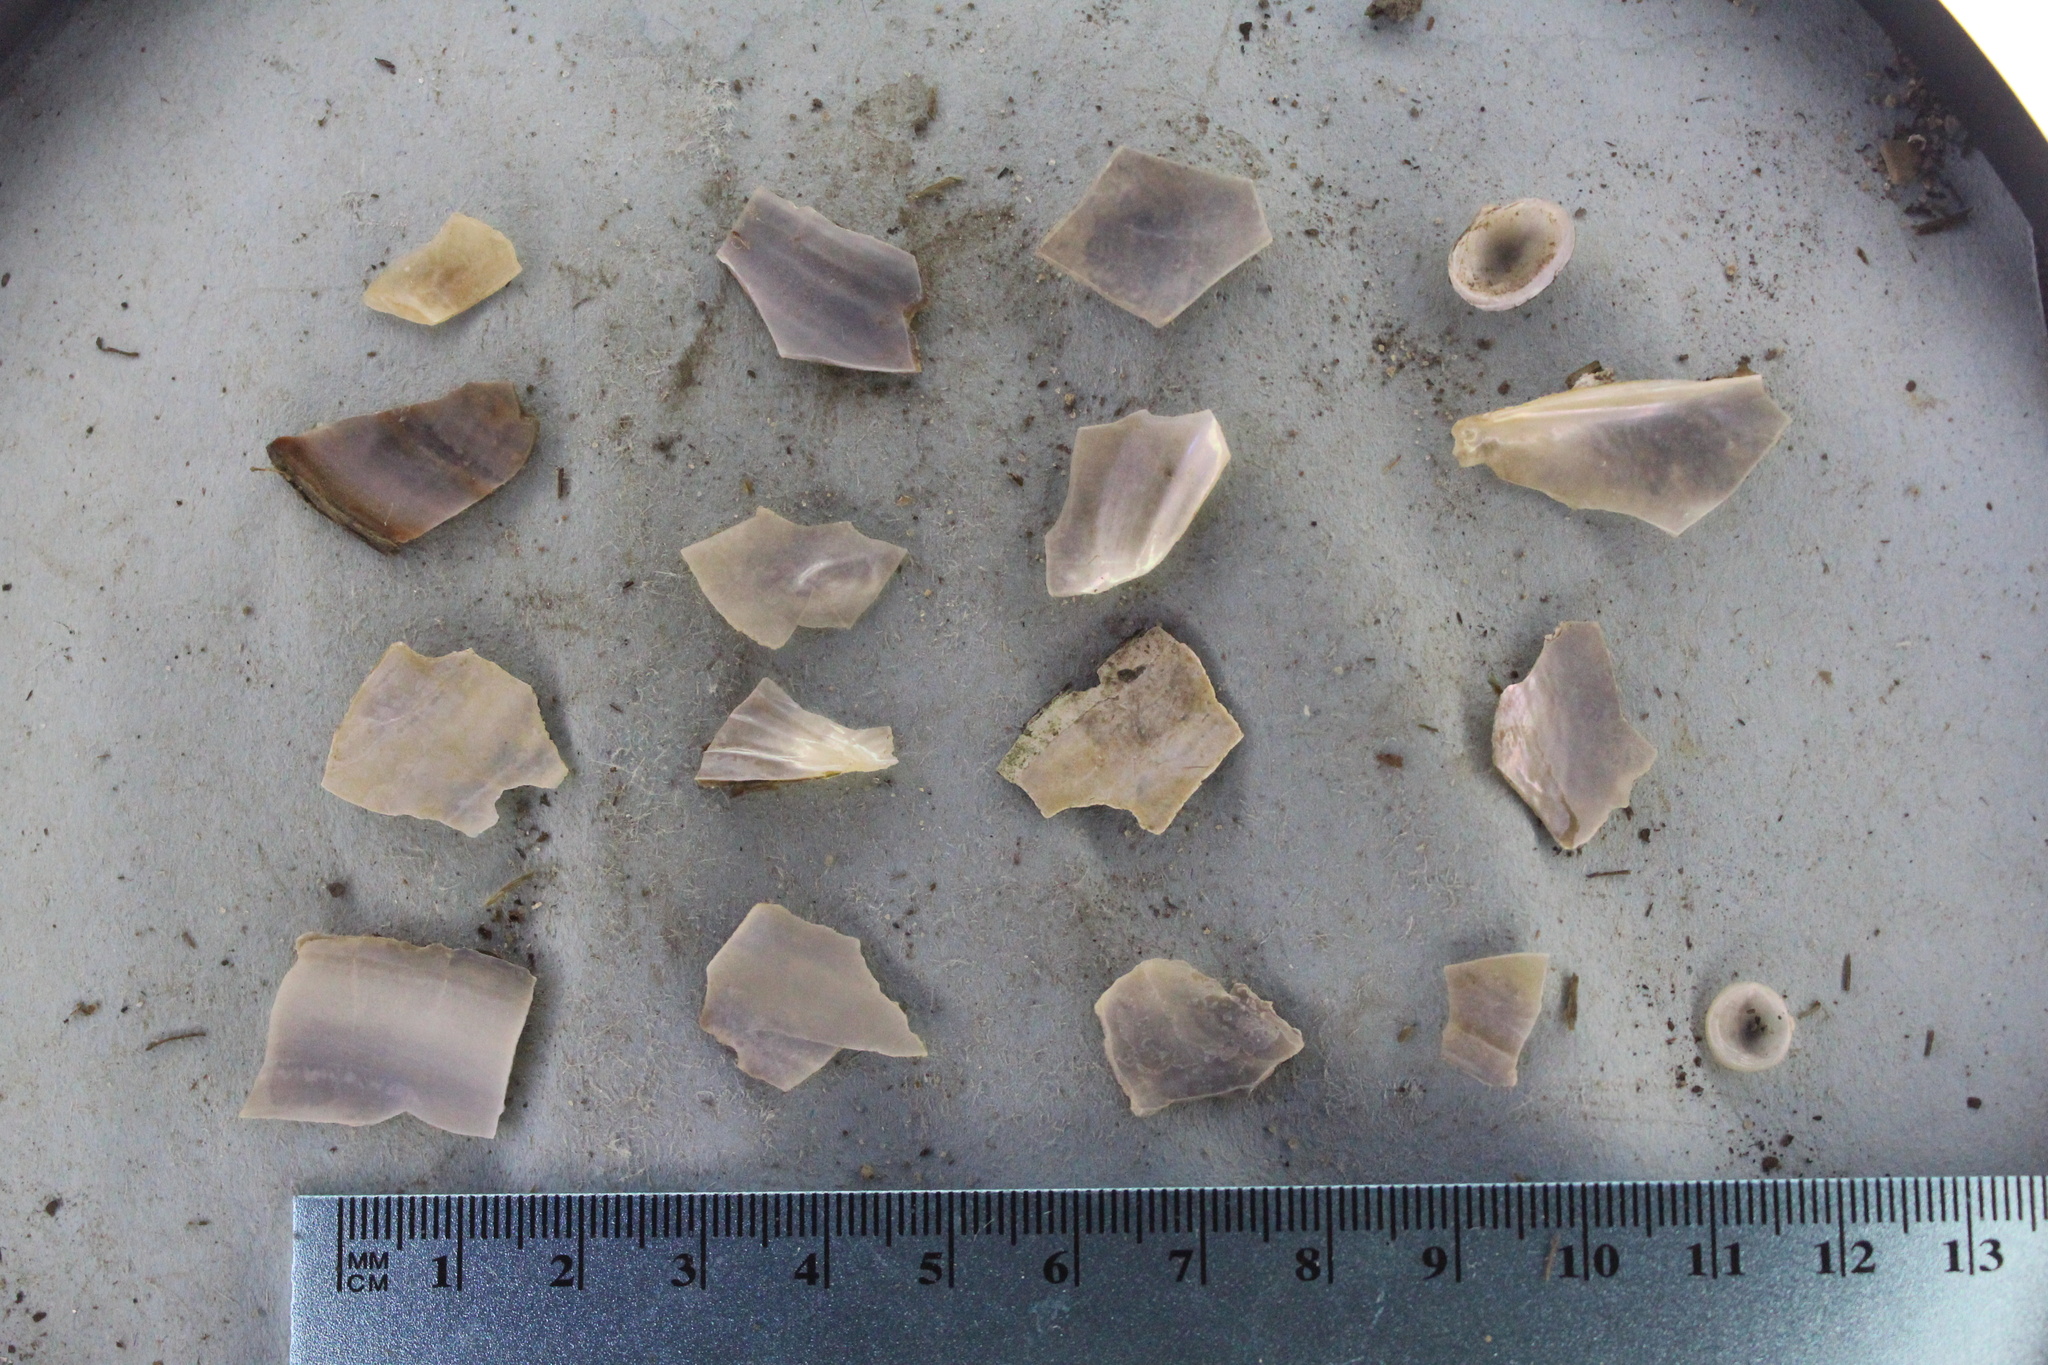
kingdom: Animalia
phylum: Mollusca
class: Bivalvia
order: Unionida
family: Unionidae
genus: Pyganodon
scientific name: Pyganodon grandis
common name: Giant floater
